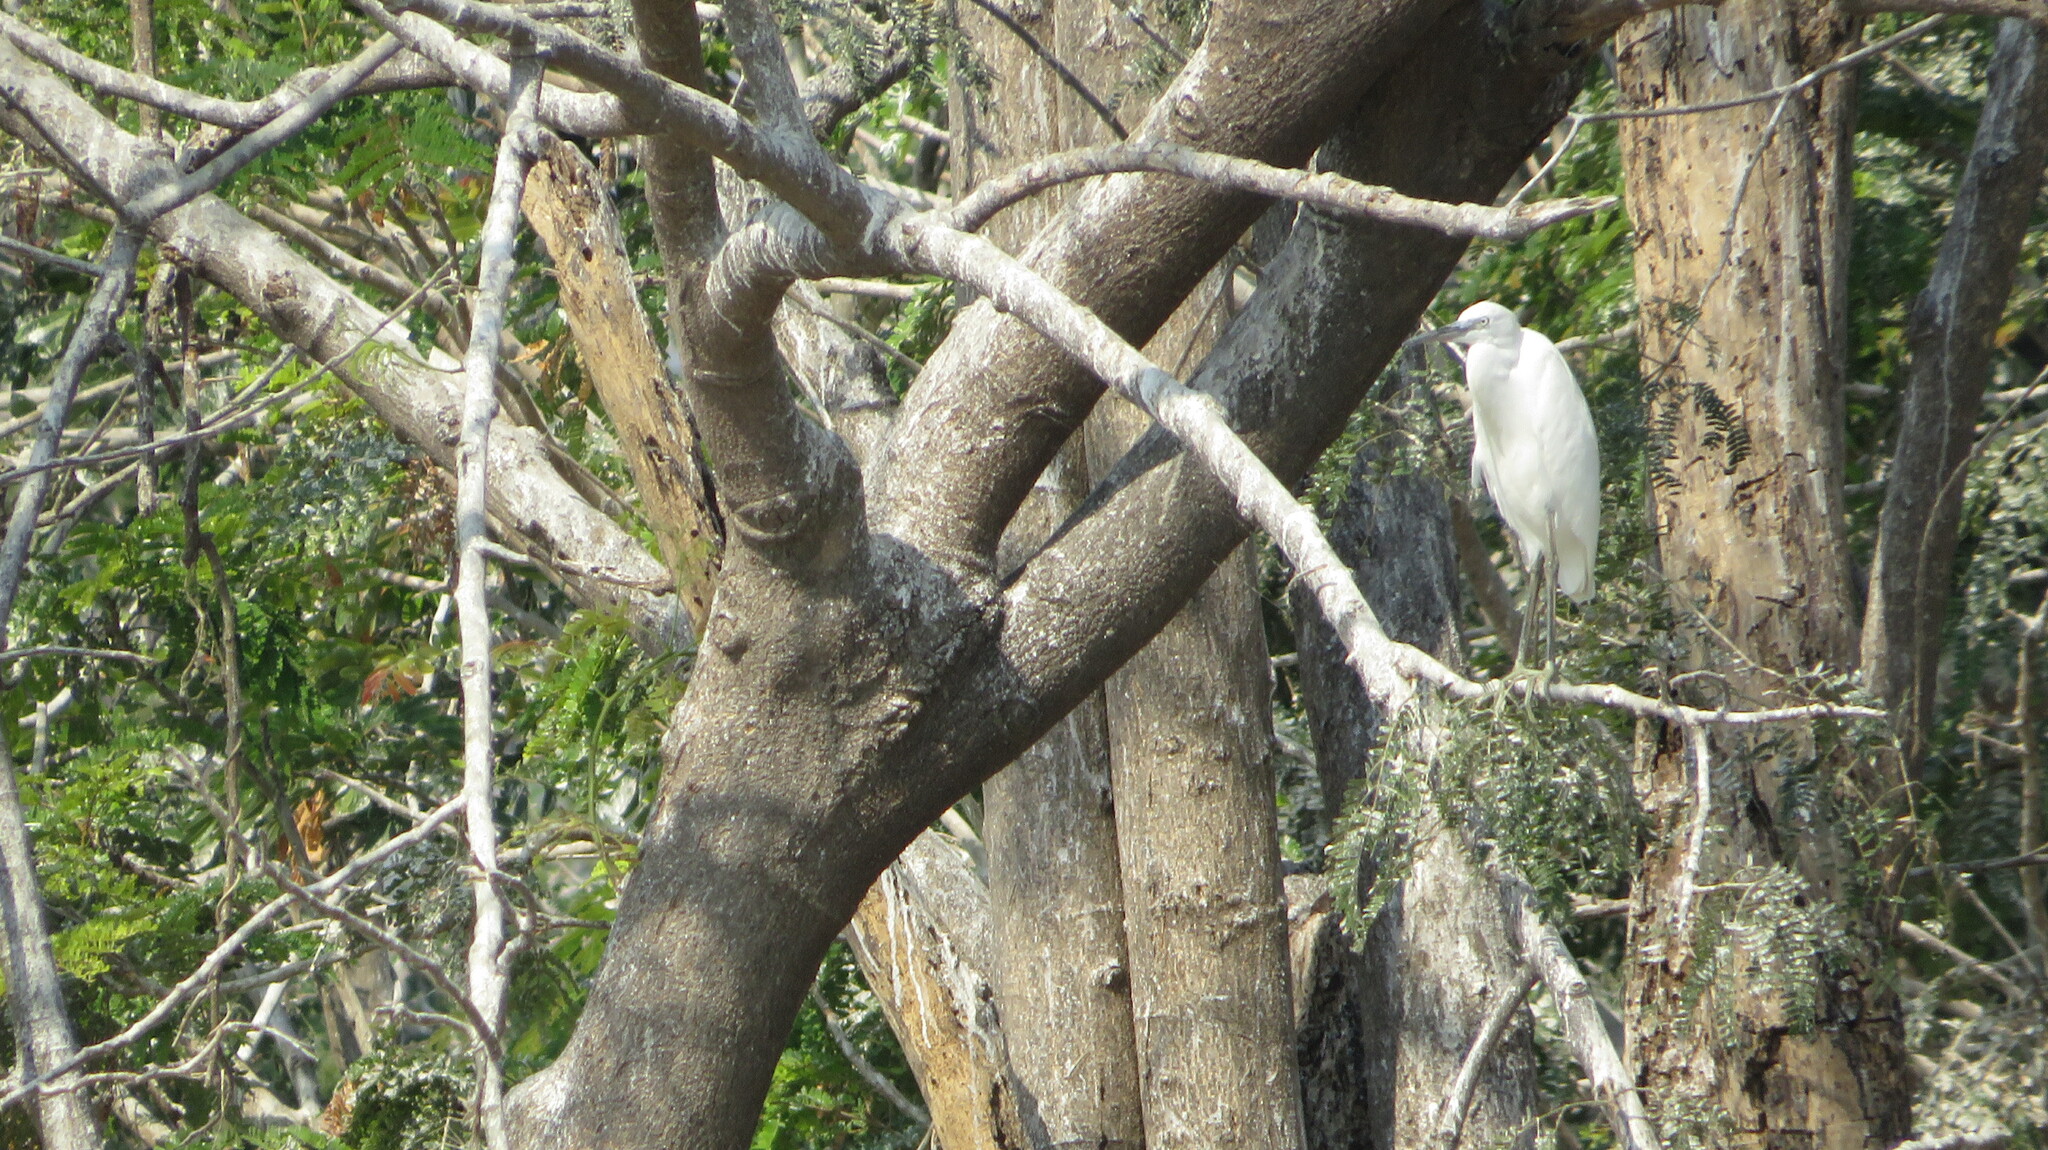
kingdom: Animalia
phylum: Chordata
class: Aves
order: Pelecaniformes
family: Ardeidae
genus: Egretta
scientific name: Egretta garzetta
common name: Little egret
